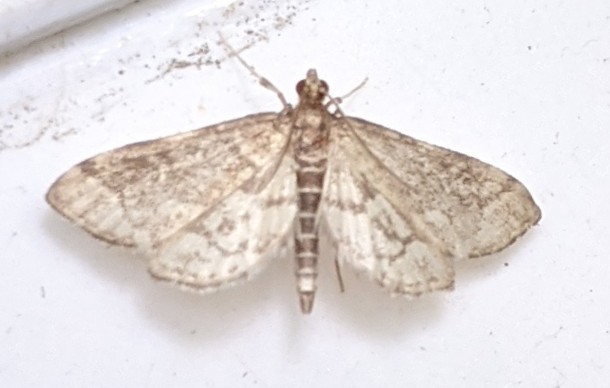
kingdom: Animalia
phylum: Arthropoda
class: Insecta
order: Lepidoptera
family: Crambidae
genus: Anageshna
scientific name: Anageshna primordialis
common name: Yellow-spotted webworm moth
